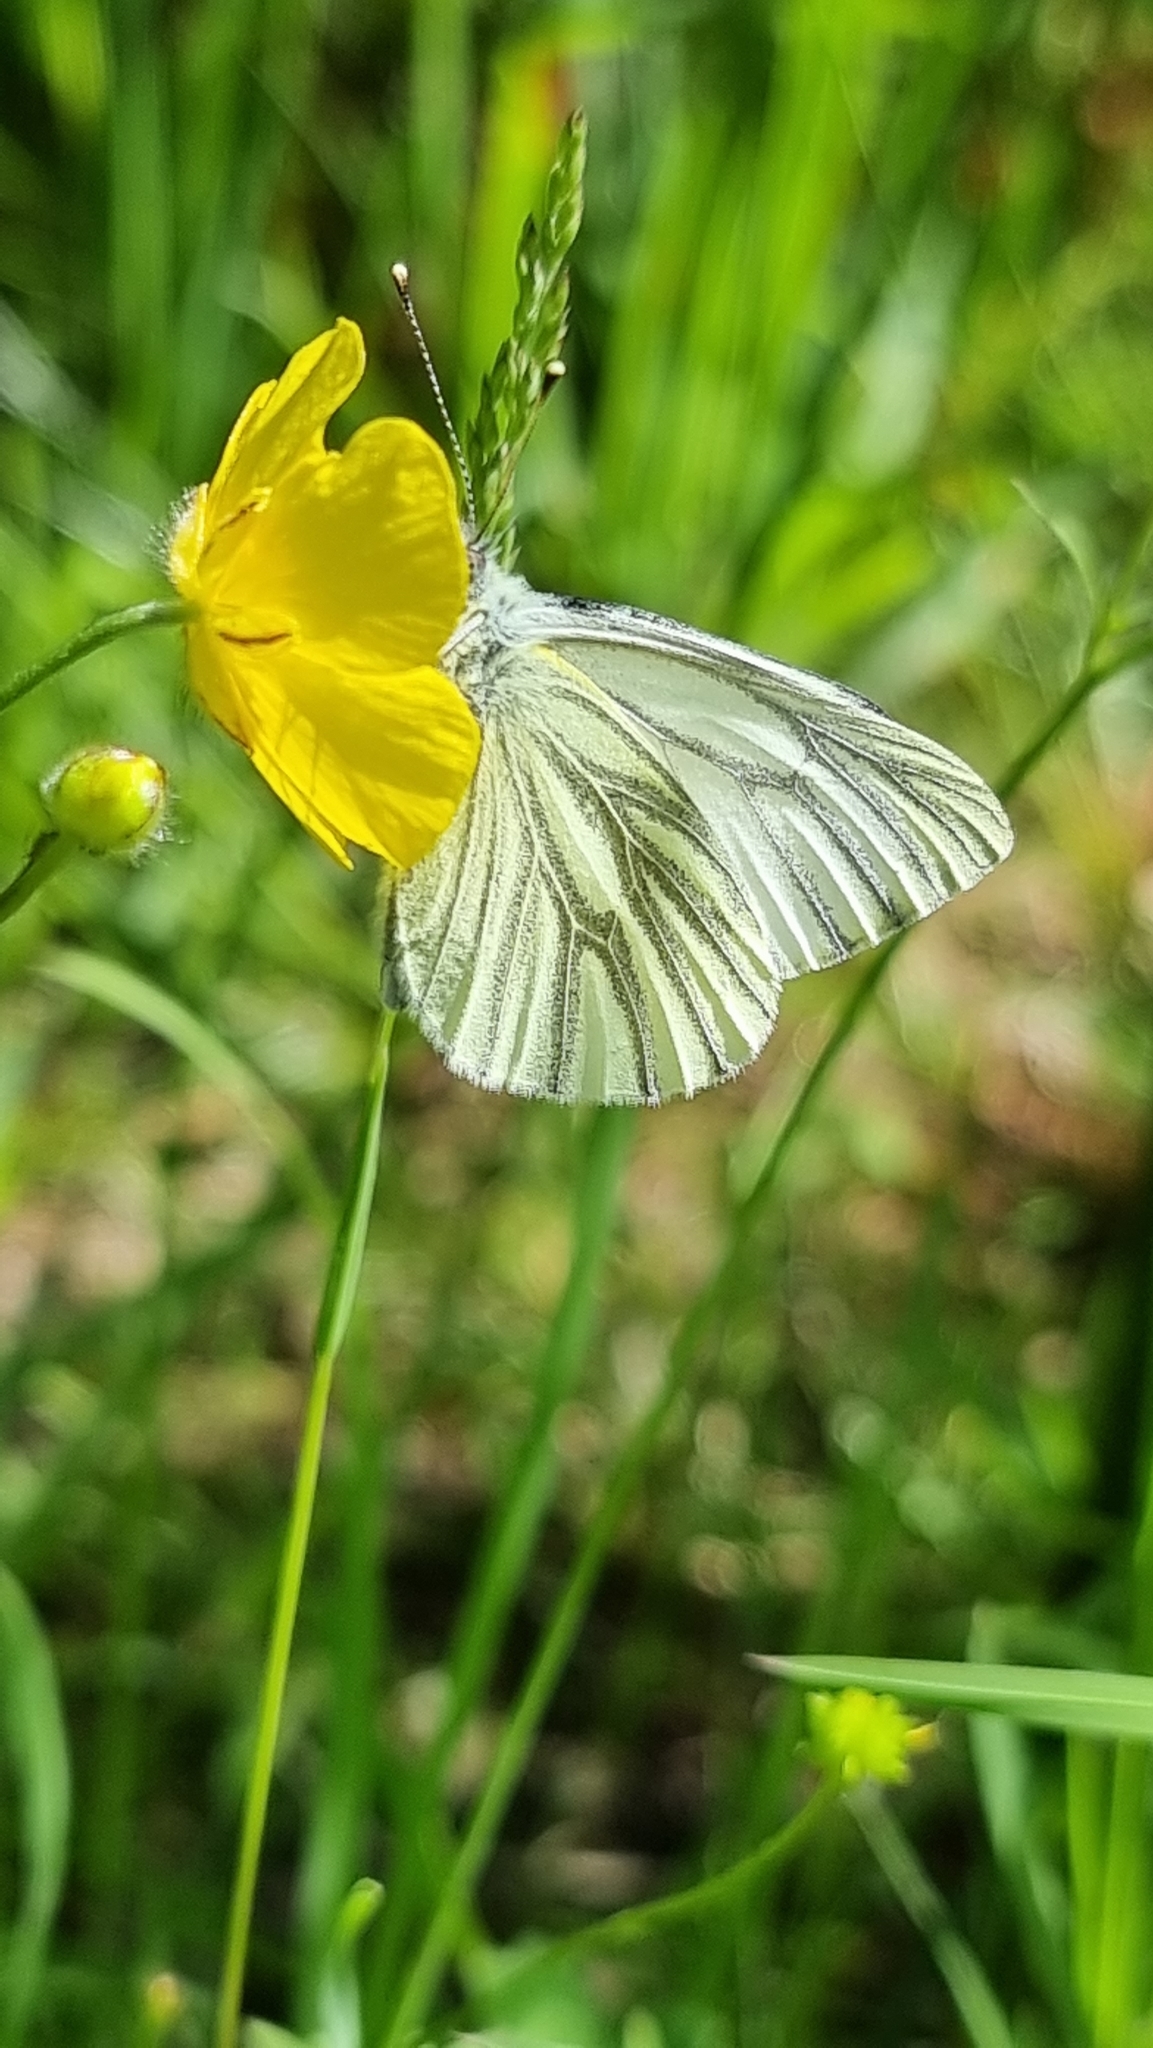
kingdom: Animalia
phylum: Arthropoda
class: Insecta
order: Lepidoptera
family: Pieridae
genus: Pieris
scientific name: Pieris napi
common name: Green-veined white
